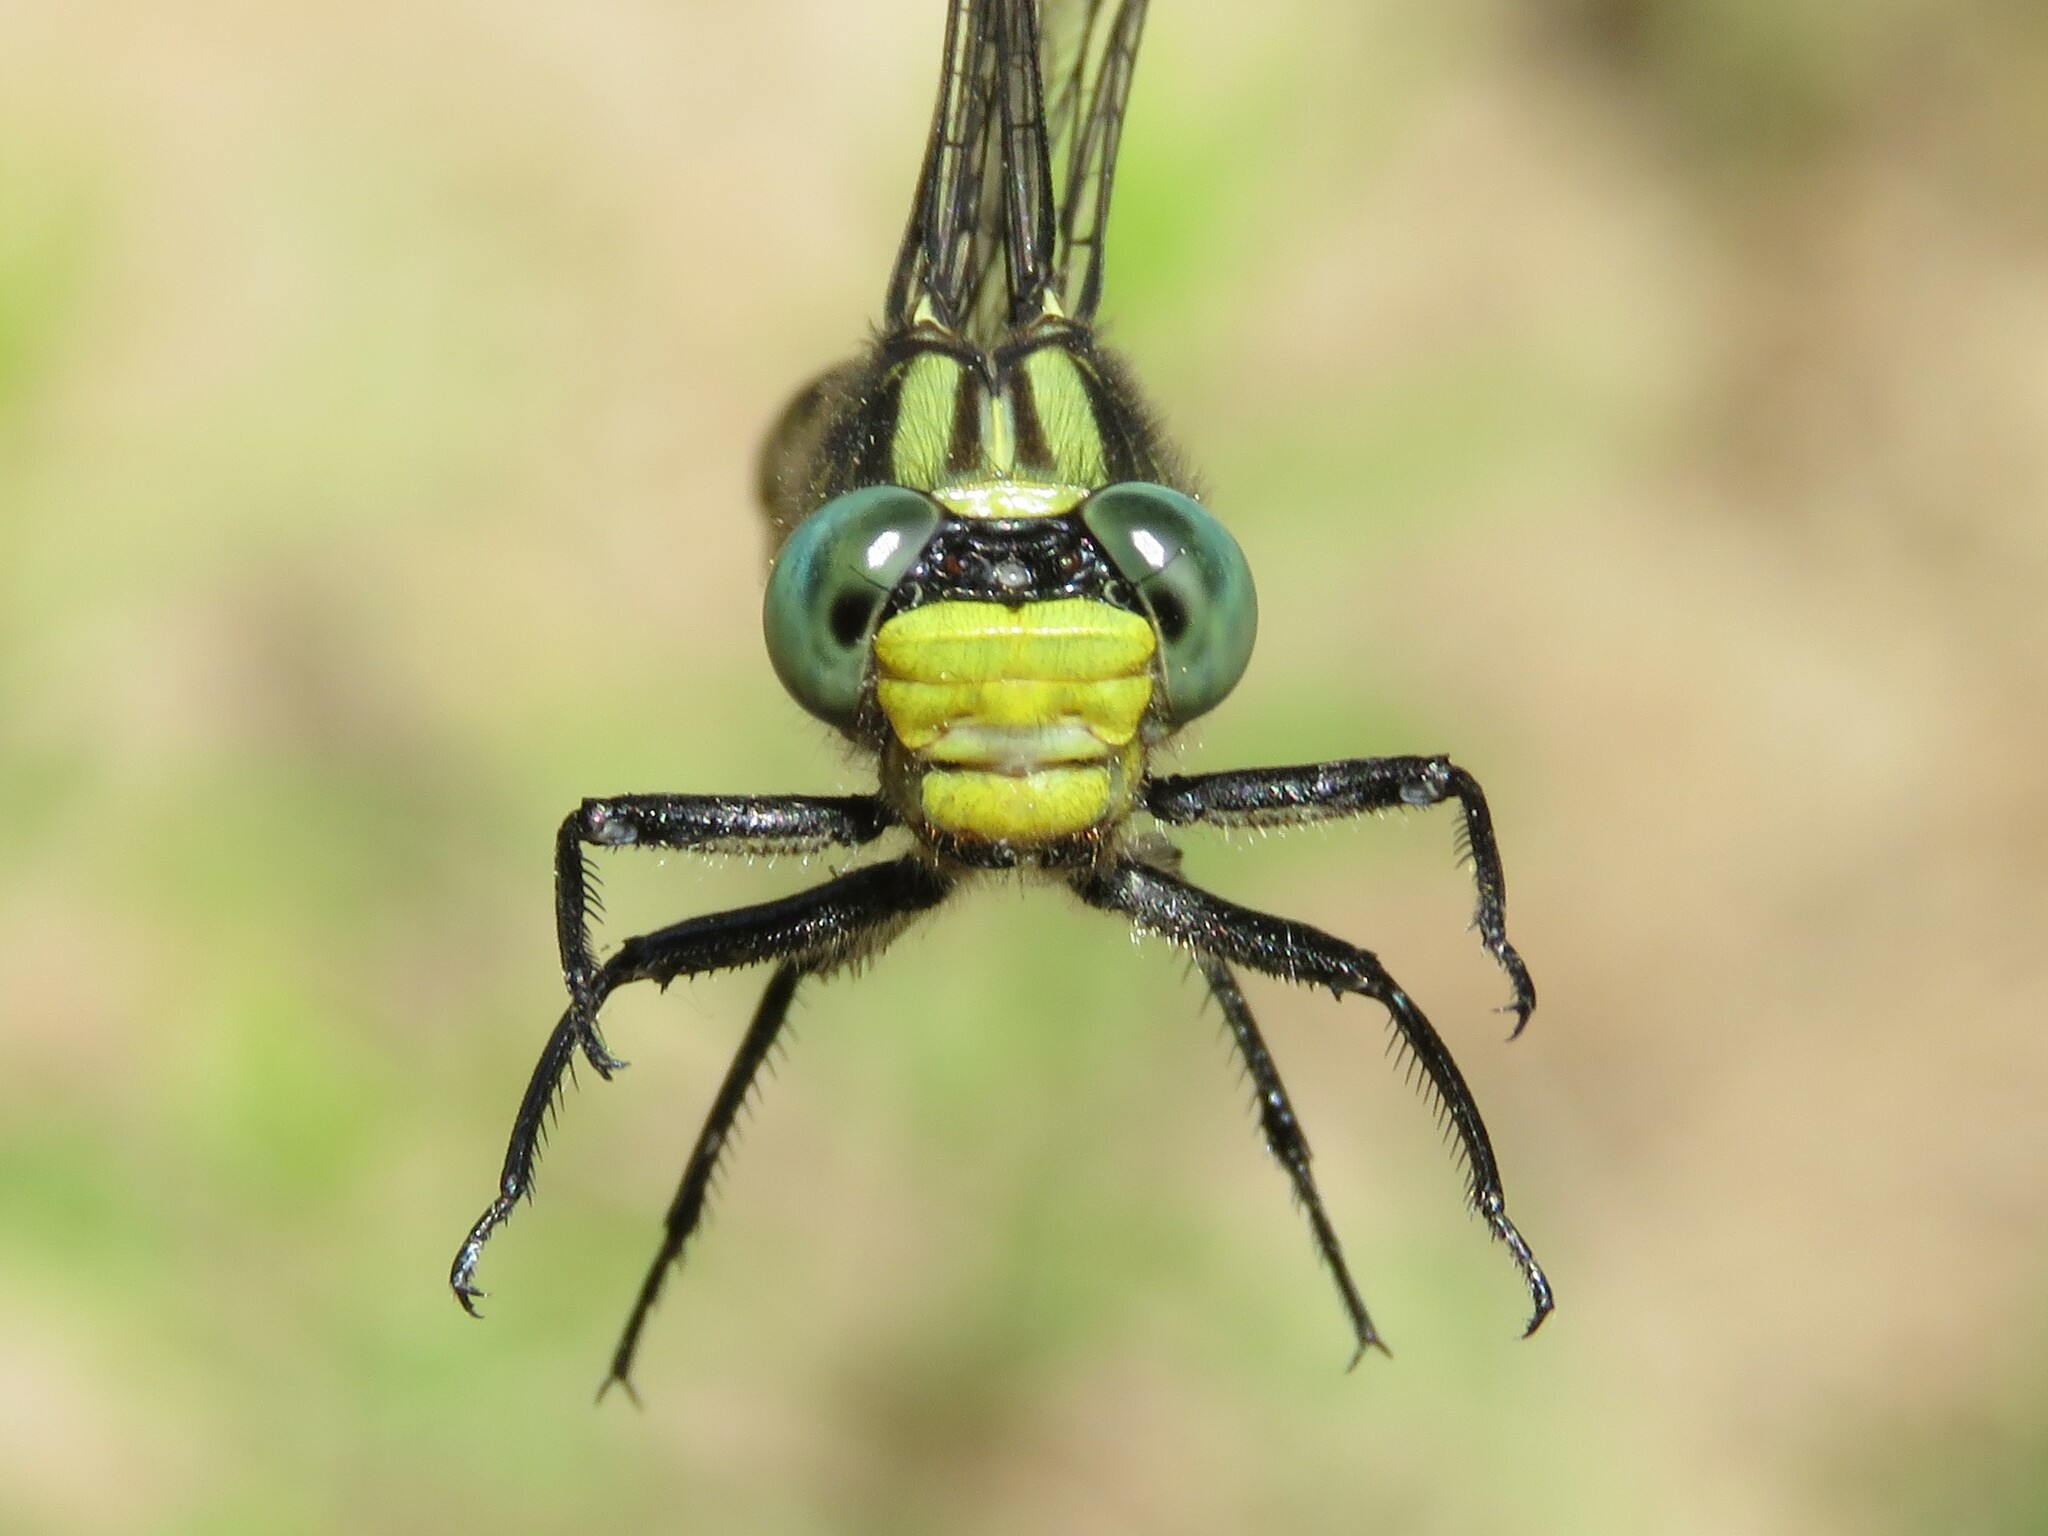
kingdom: Animalia
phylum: Arthropoda
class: Insecta
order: Odonata
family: Gomphidae
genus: Arigomphus
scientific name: Arigomphus furcifer
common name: Lilypad clubtail
